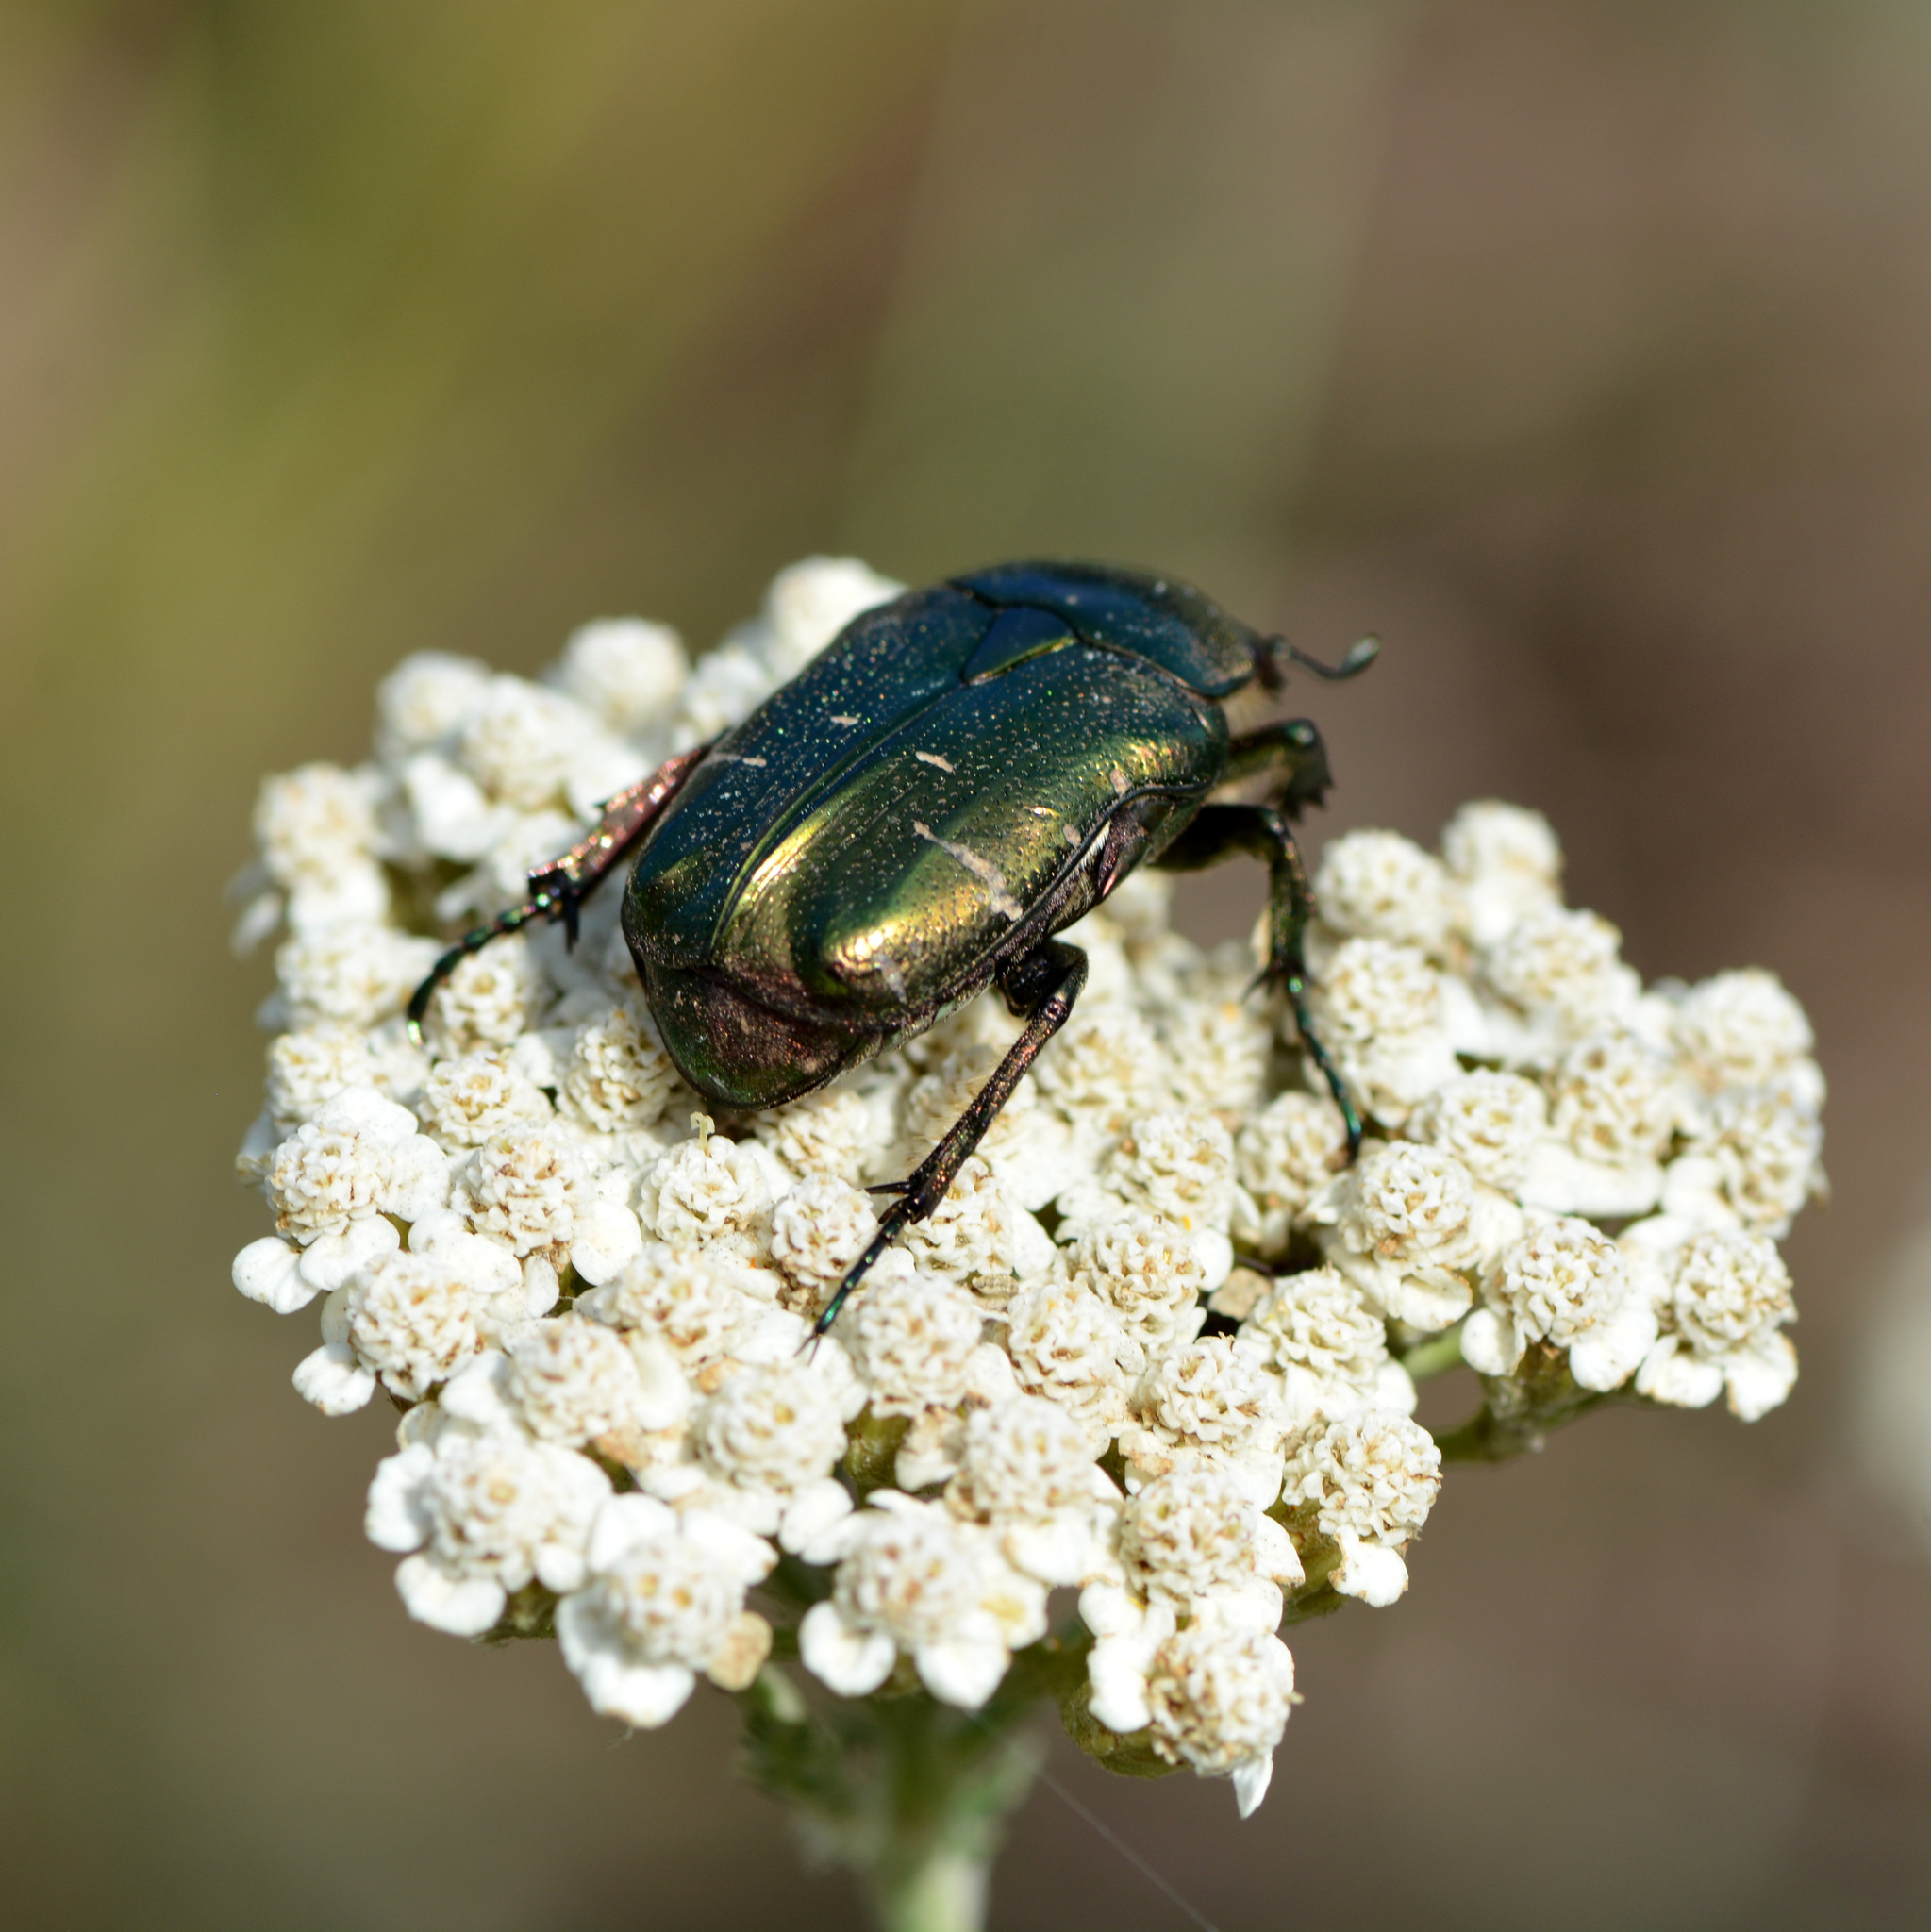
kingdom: Animalia
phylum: Arthropoda
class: Insecta
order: Coleoptera
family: Scarabaeidae
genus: Cetonia
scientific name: Cetonia aurata
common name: Rose chafer
